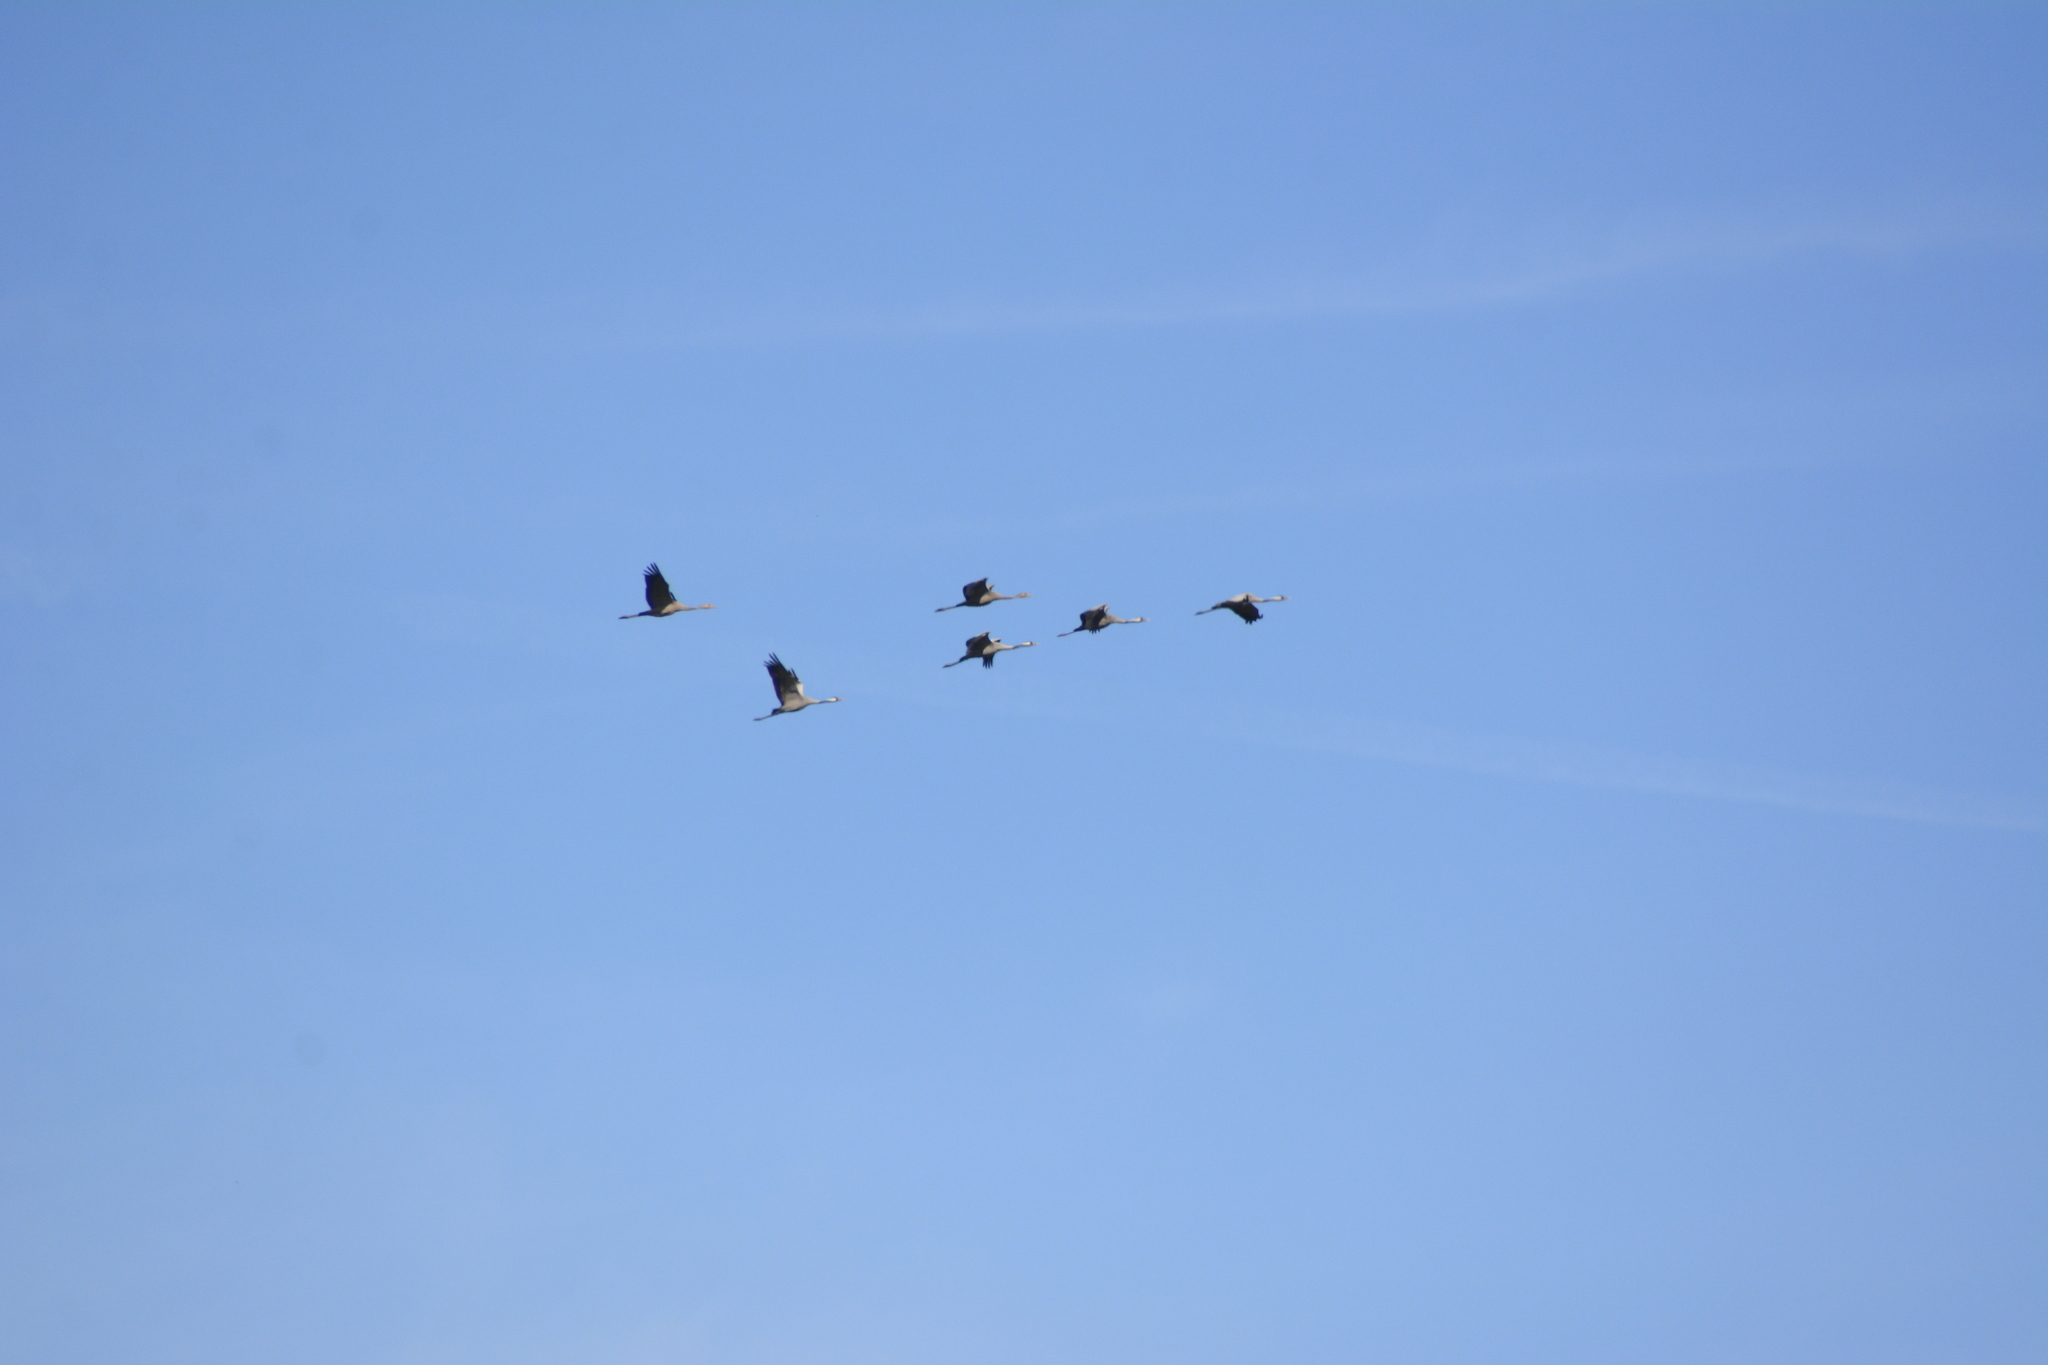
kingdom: Animalia
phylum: Chordata
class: Aves
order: Gruiformes
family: Gruidae
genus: Grus
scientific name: Grus grus
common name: Common crane
